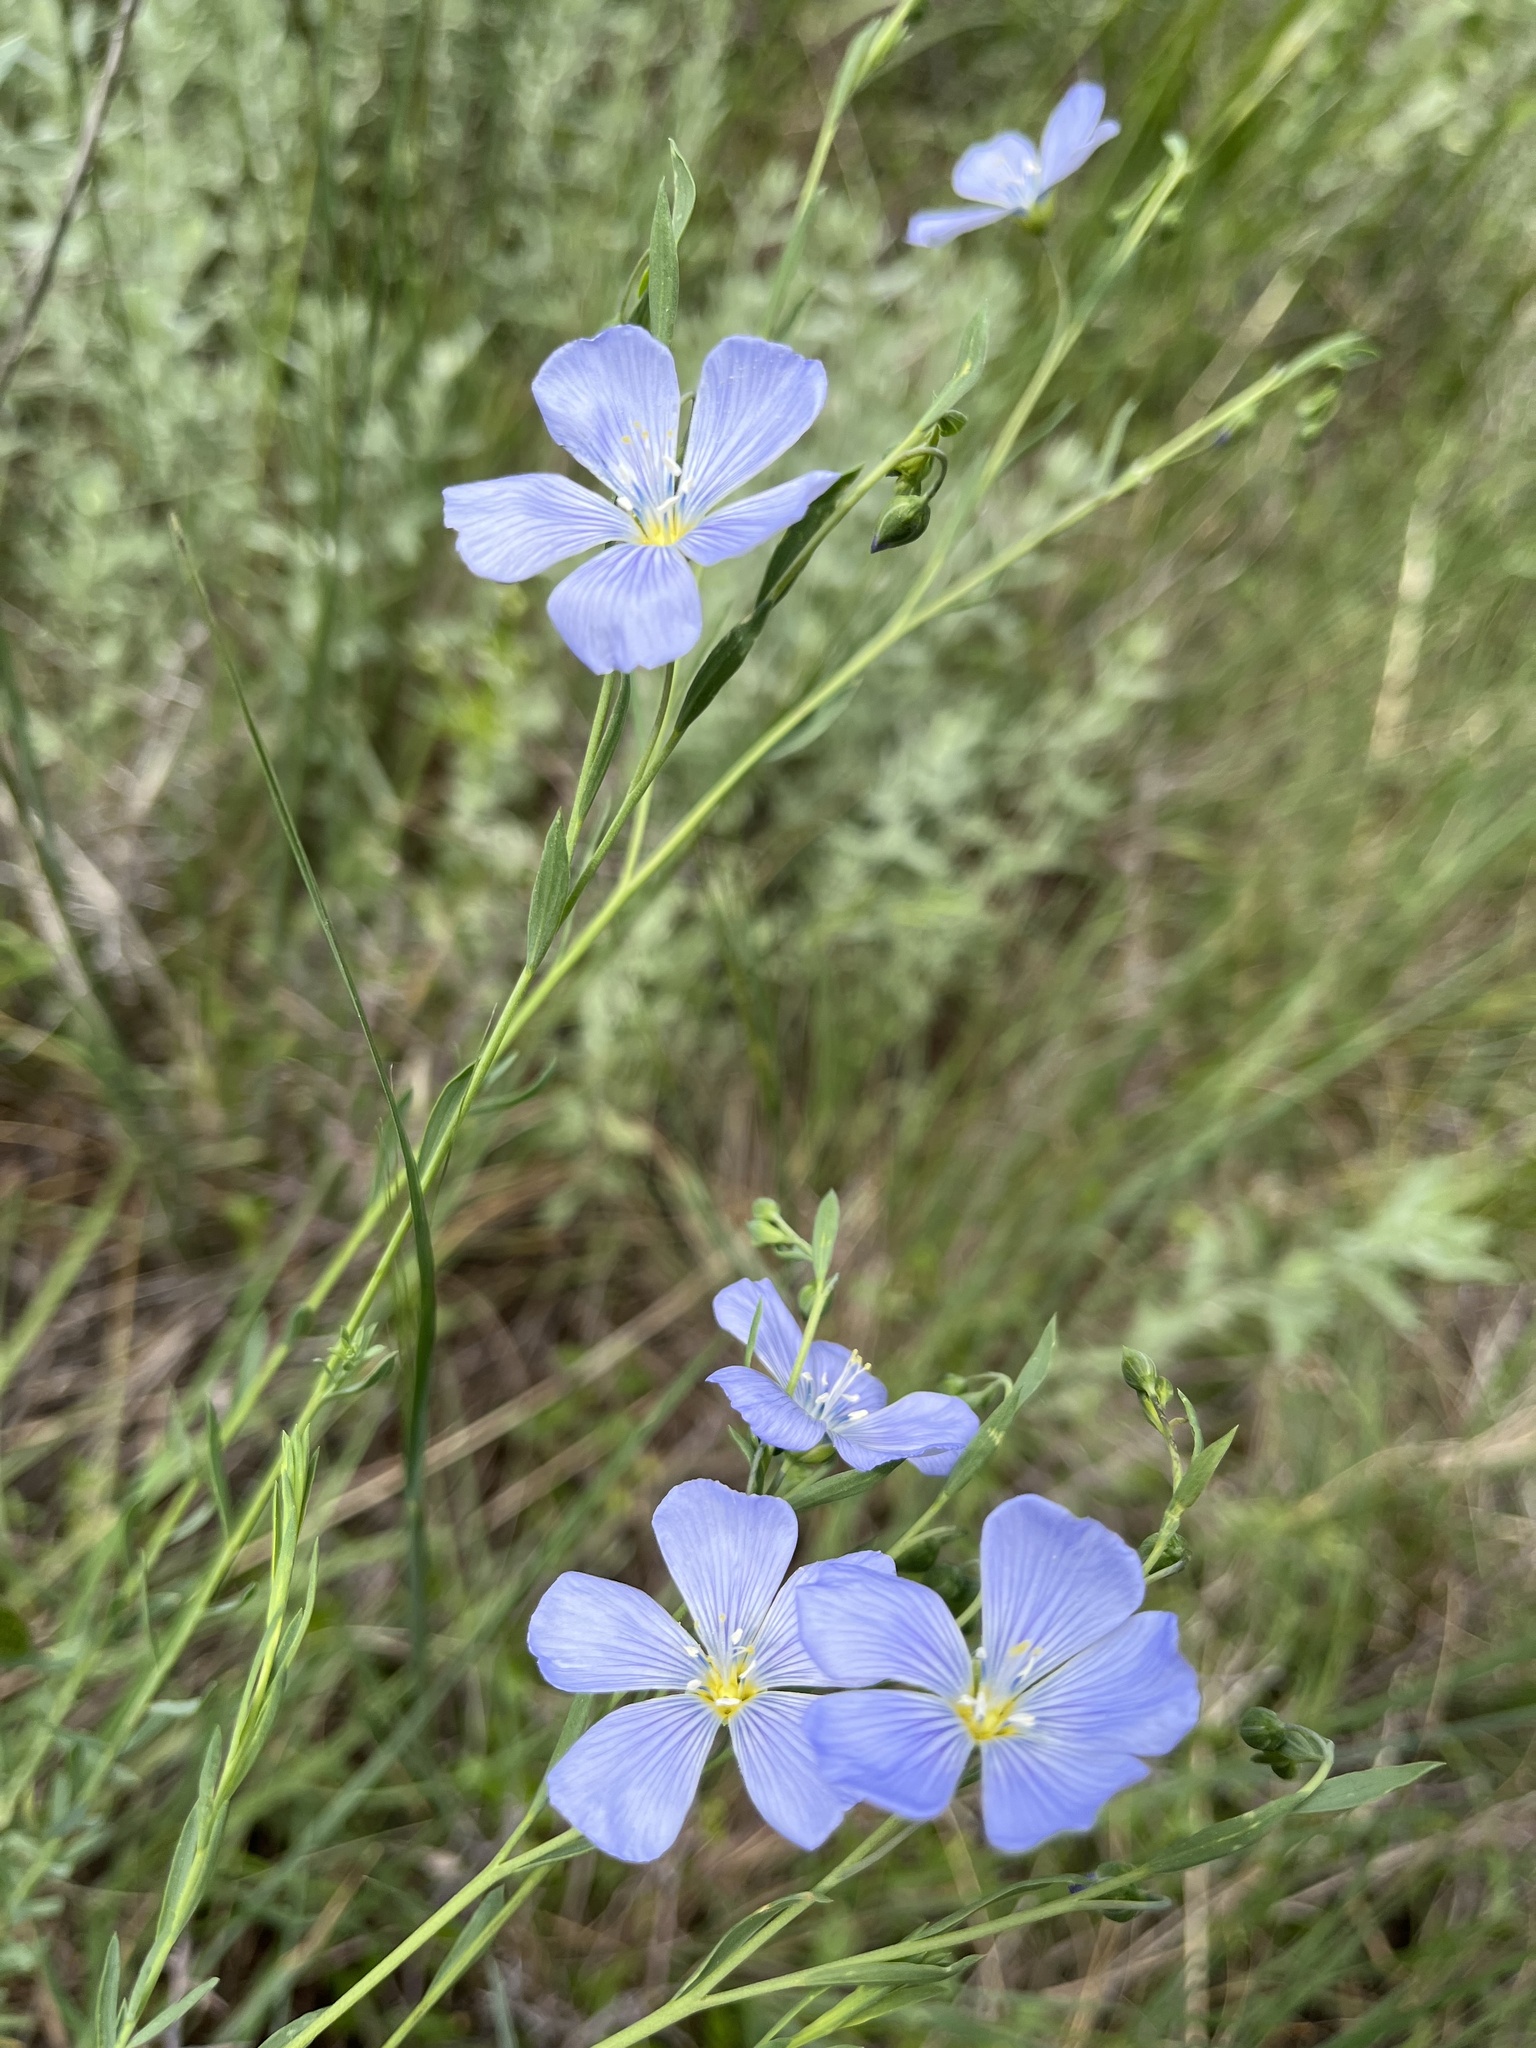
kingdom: Plantae
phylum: Tracheophyta
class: Magnoliopsida
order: Malpighiales
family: Linaceae
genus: Linum
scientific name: Linum lewisii
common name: Prairie flax
